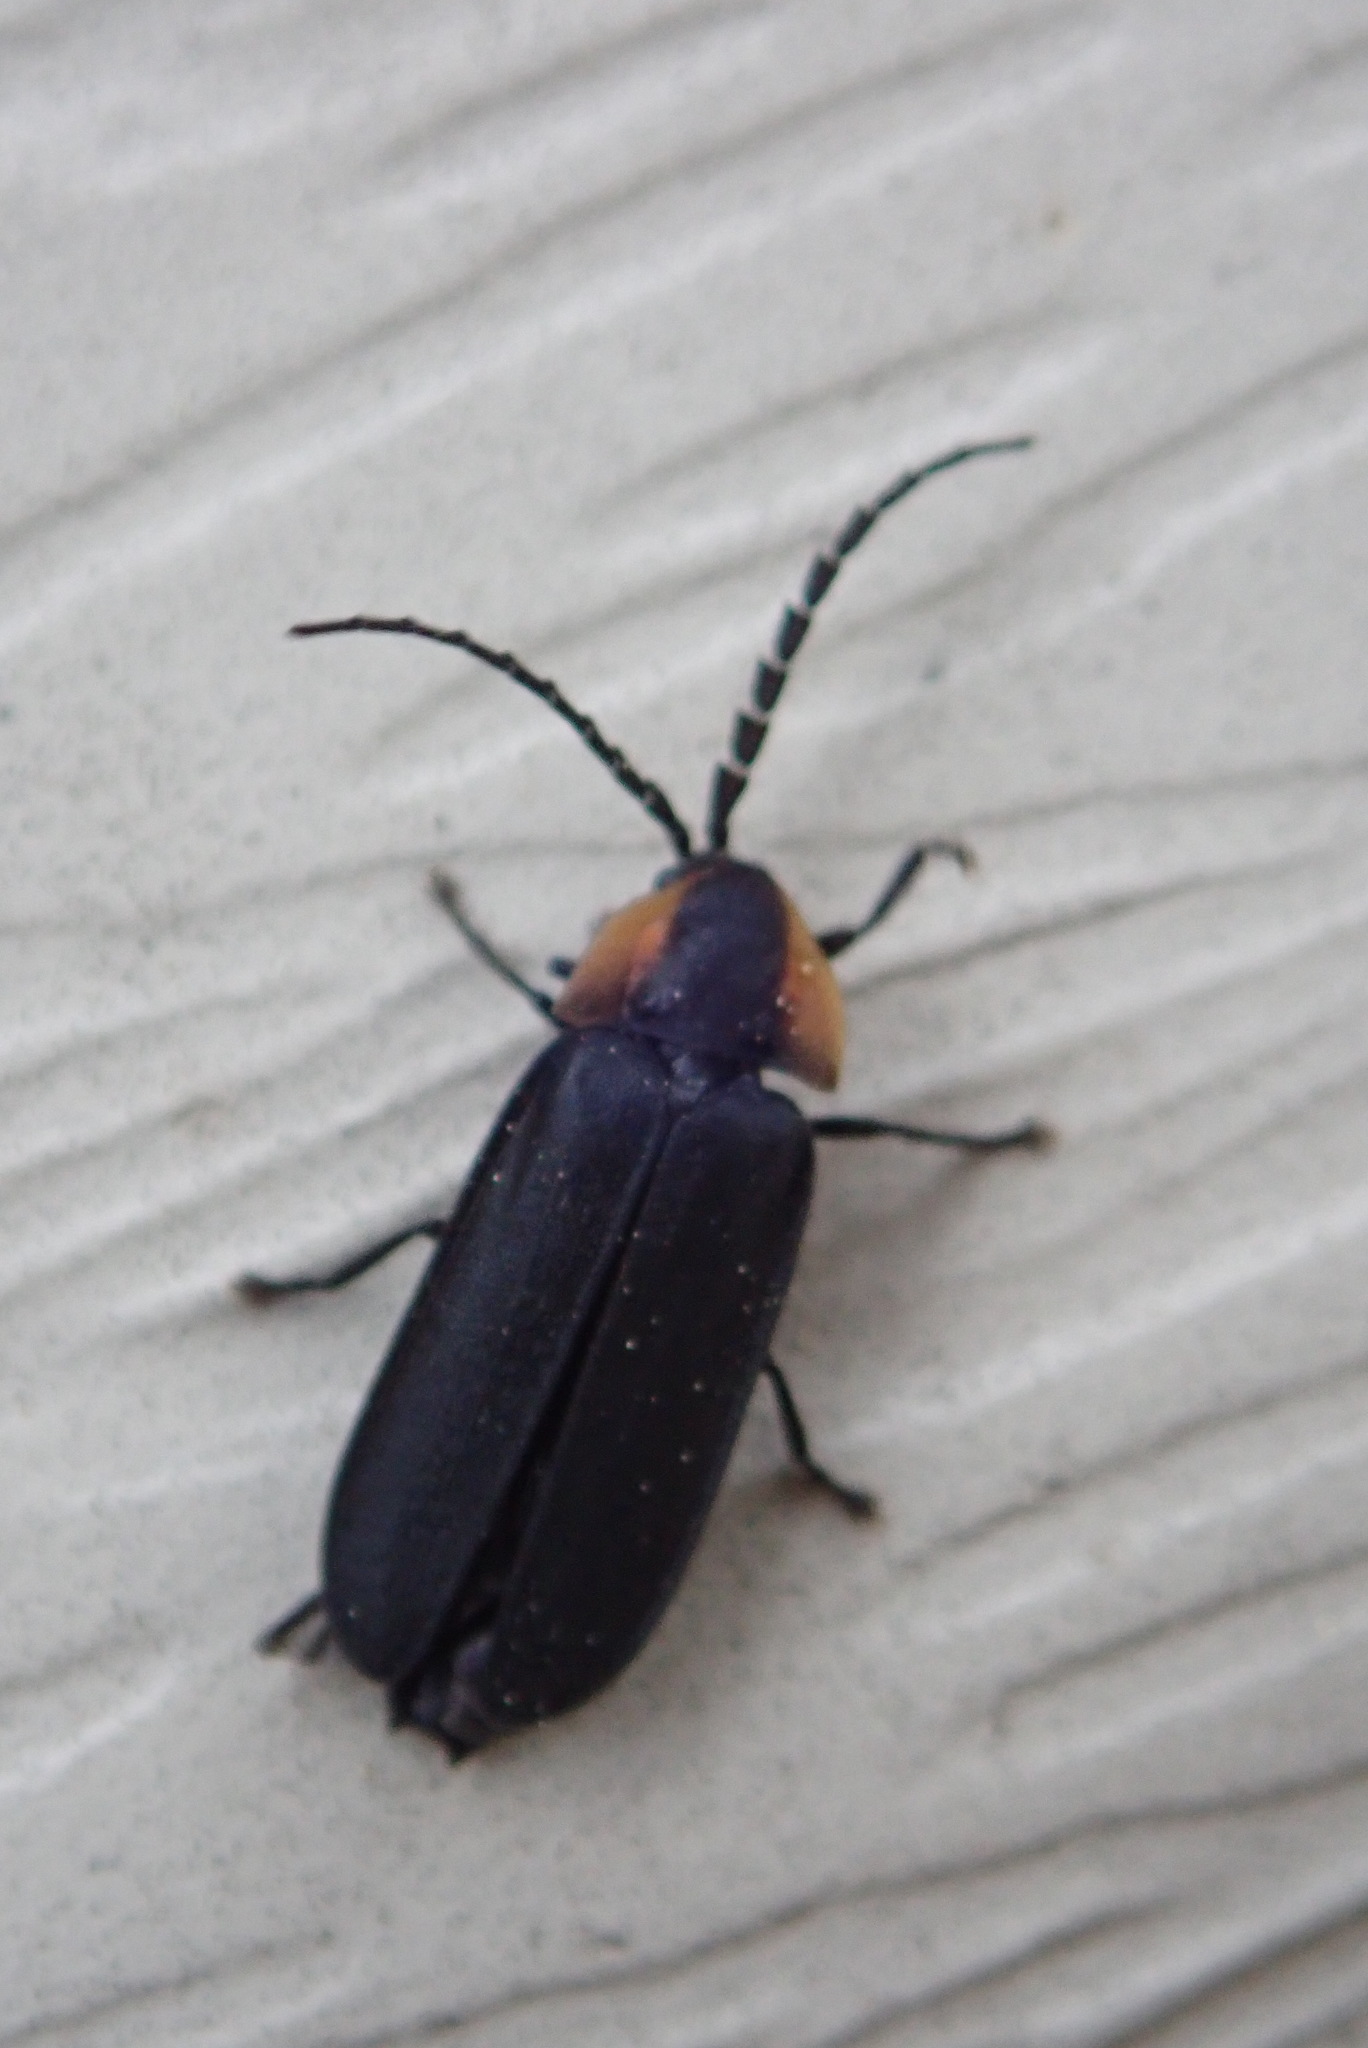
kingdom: Animalia
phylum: Arthropoda
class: Insecta
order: Coleoptera
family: Lampyridae
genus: Lucidota
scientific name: Lucidota atra
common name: Black firefly
